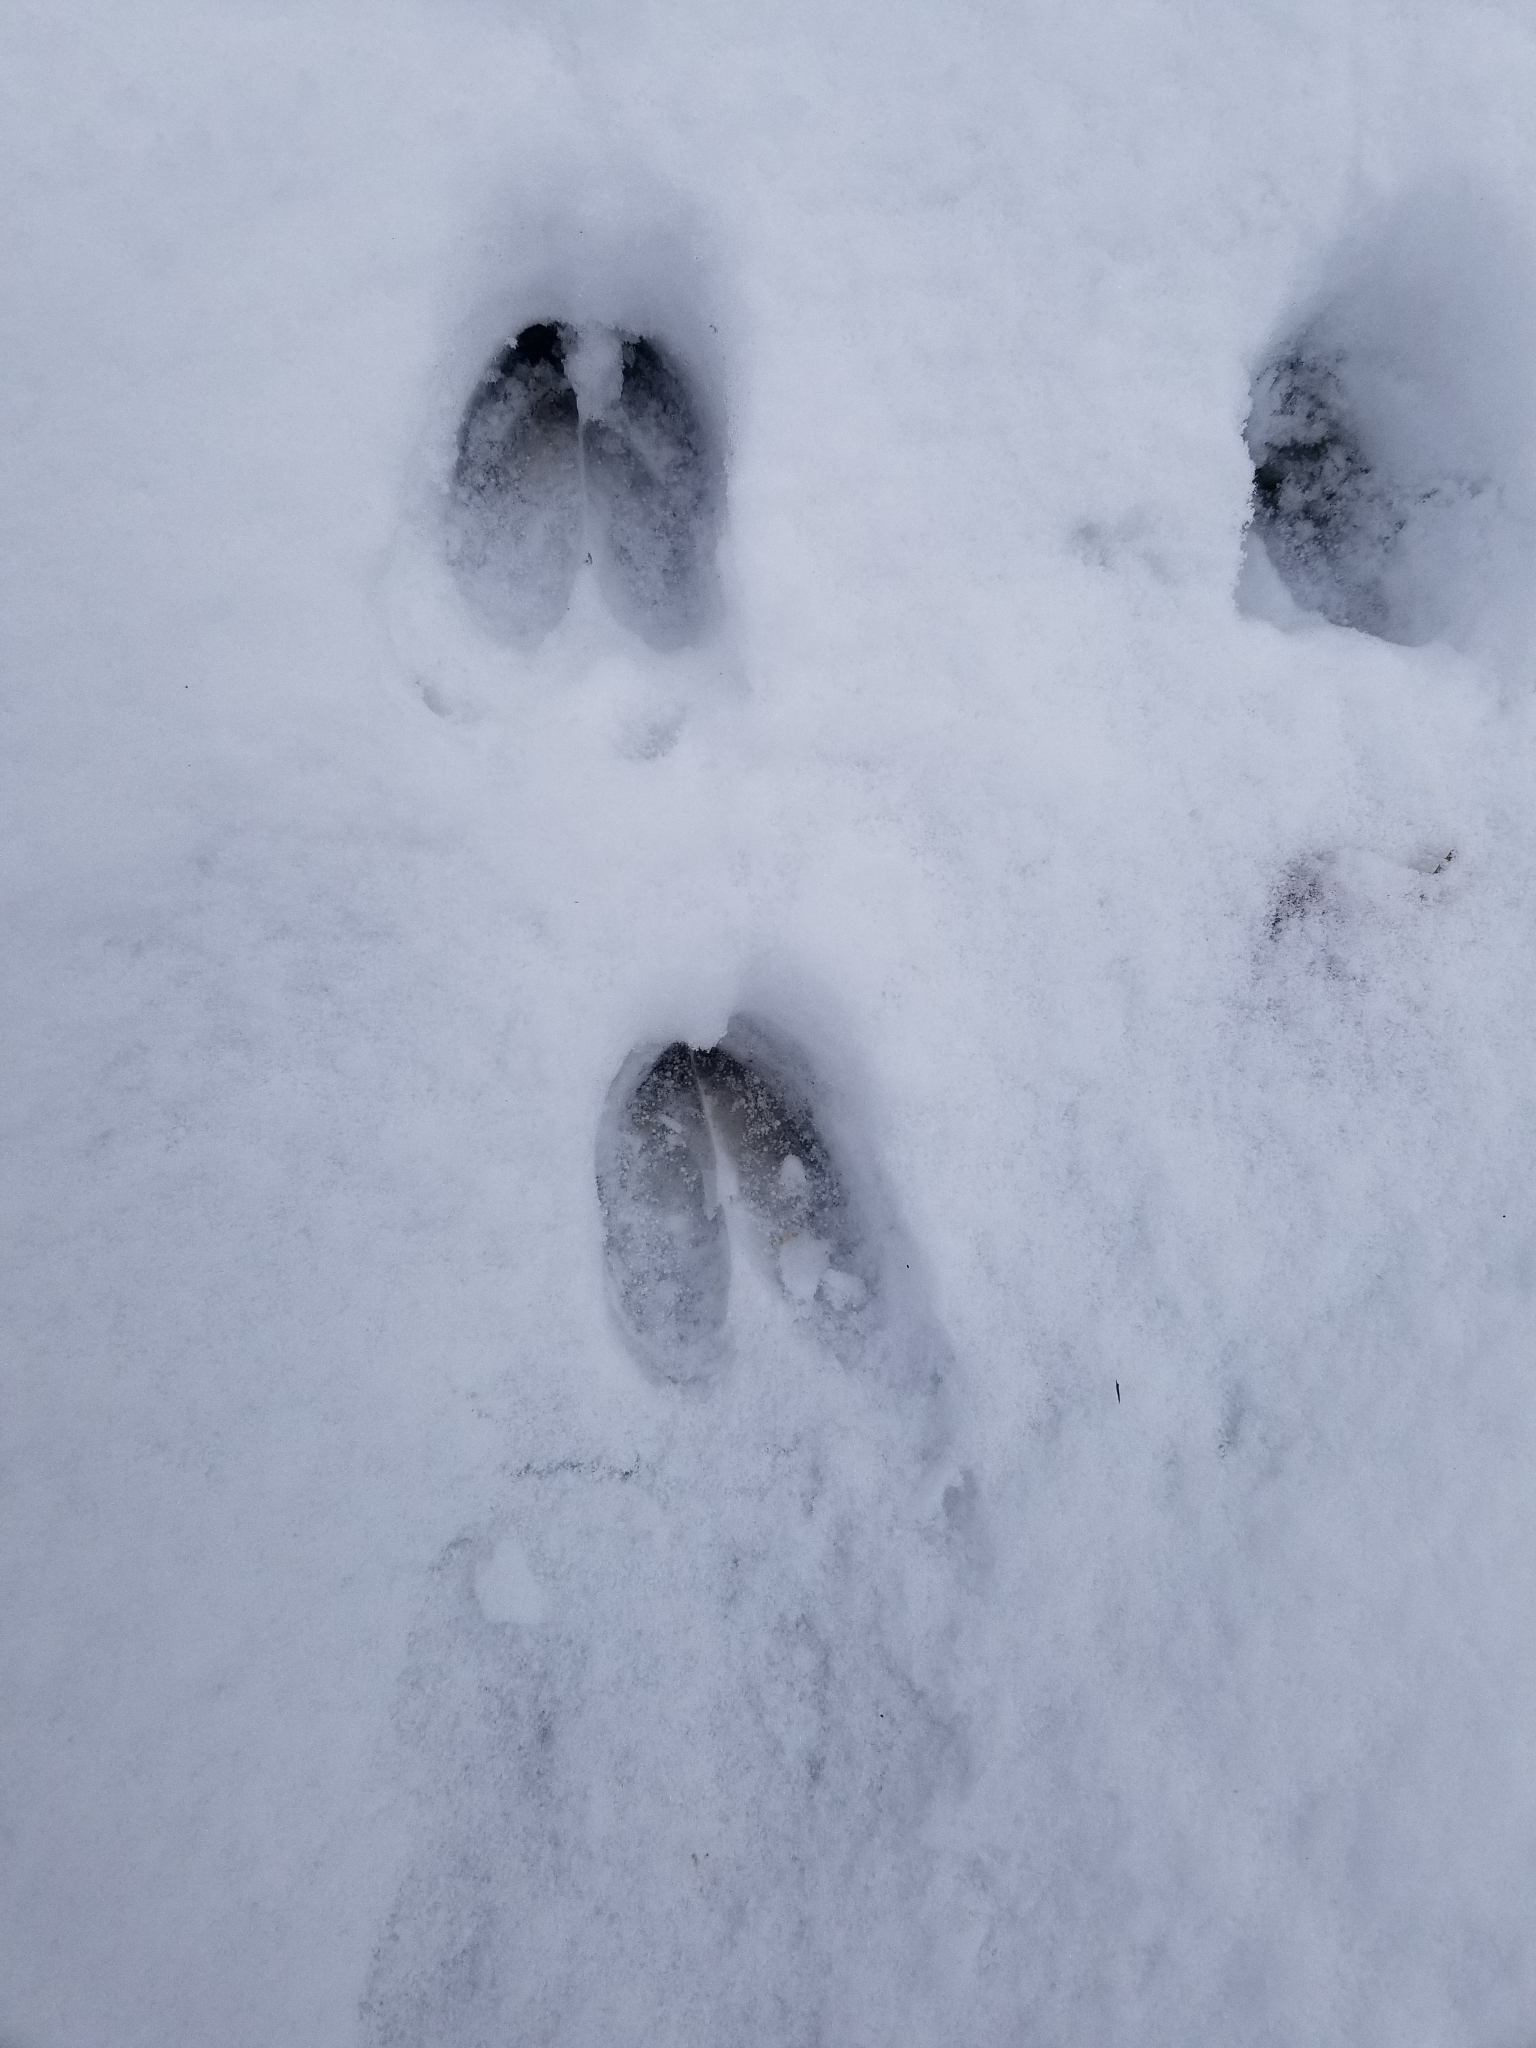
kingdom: Animalia
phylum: Chordata
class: Mammalia
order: Artiodactyla
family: Cervidae
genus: Odocoileus
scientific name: Odocoileus virginianus
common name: White-tailed deer
